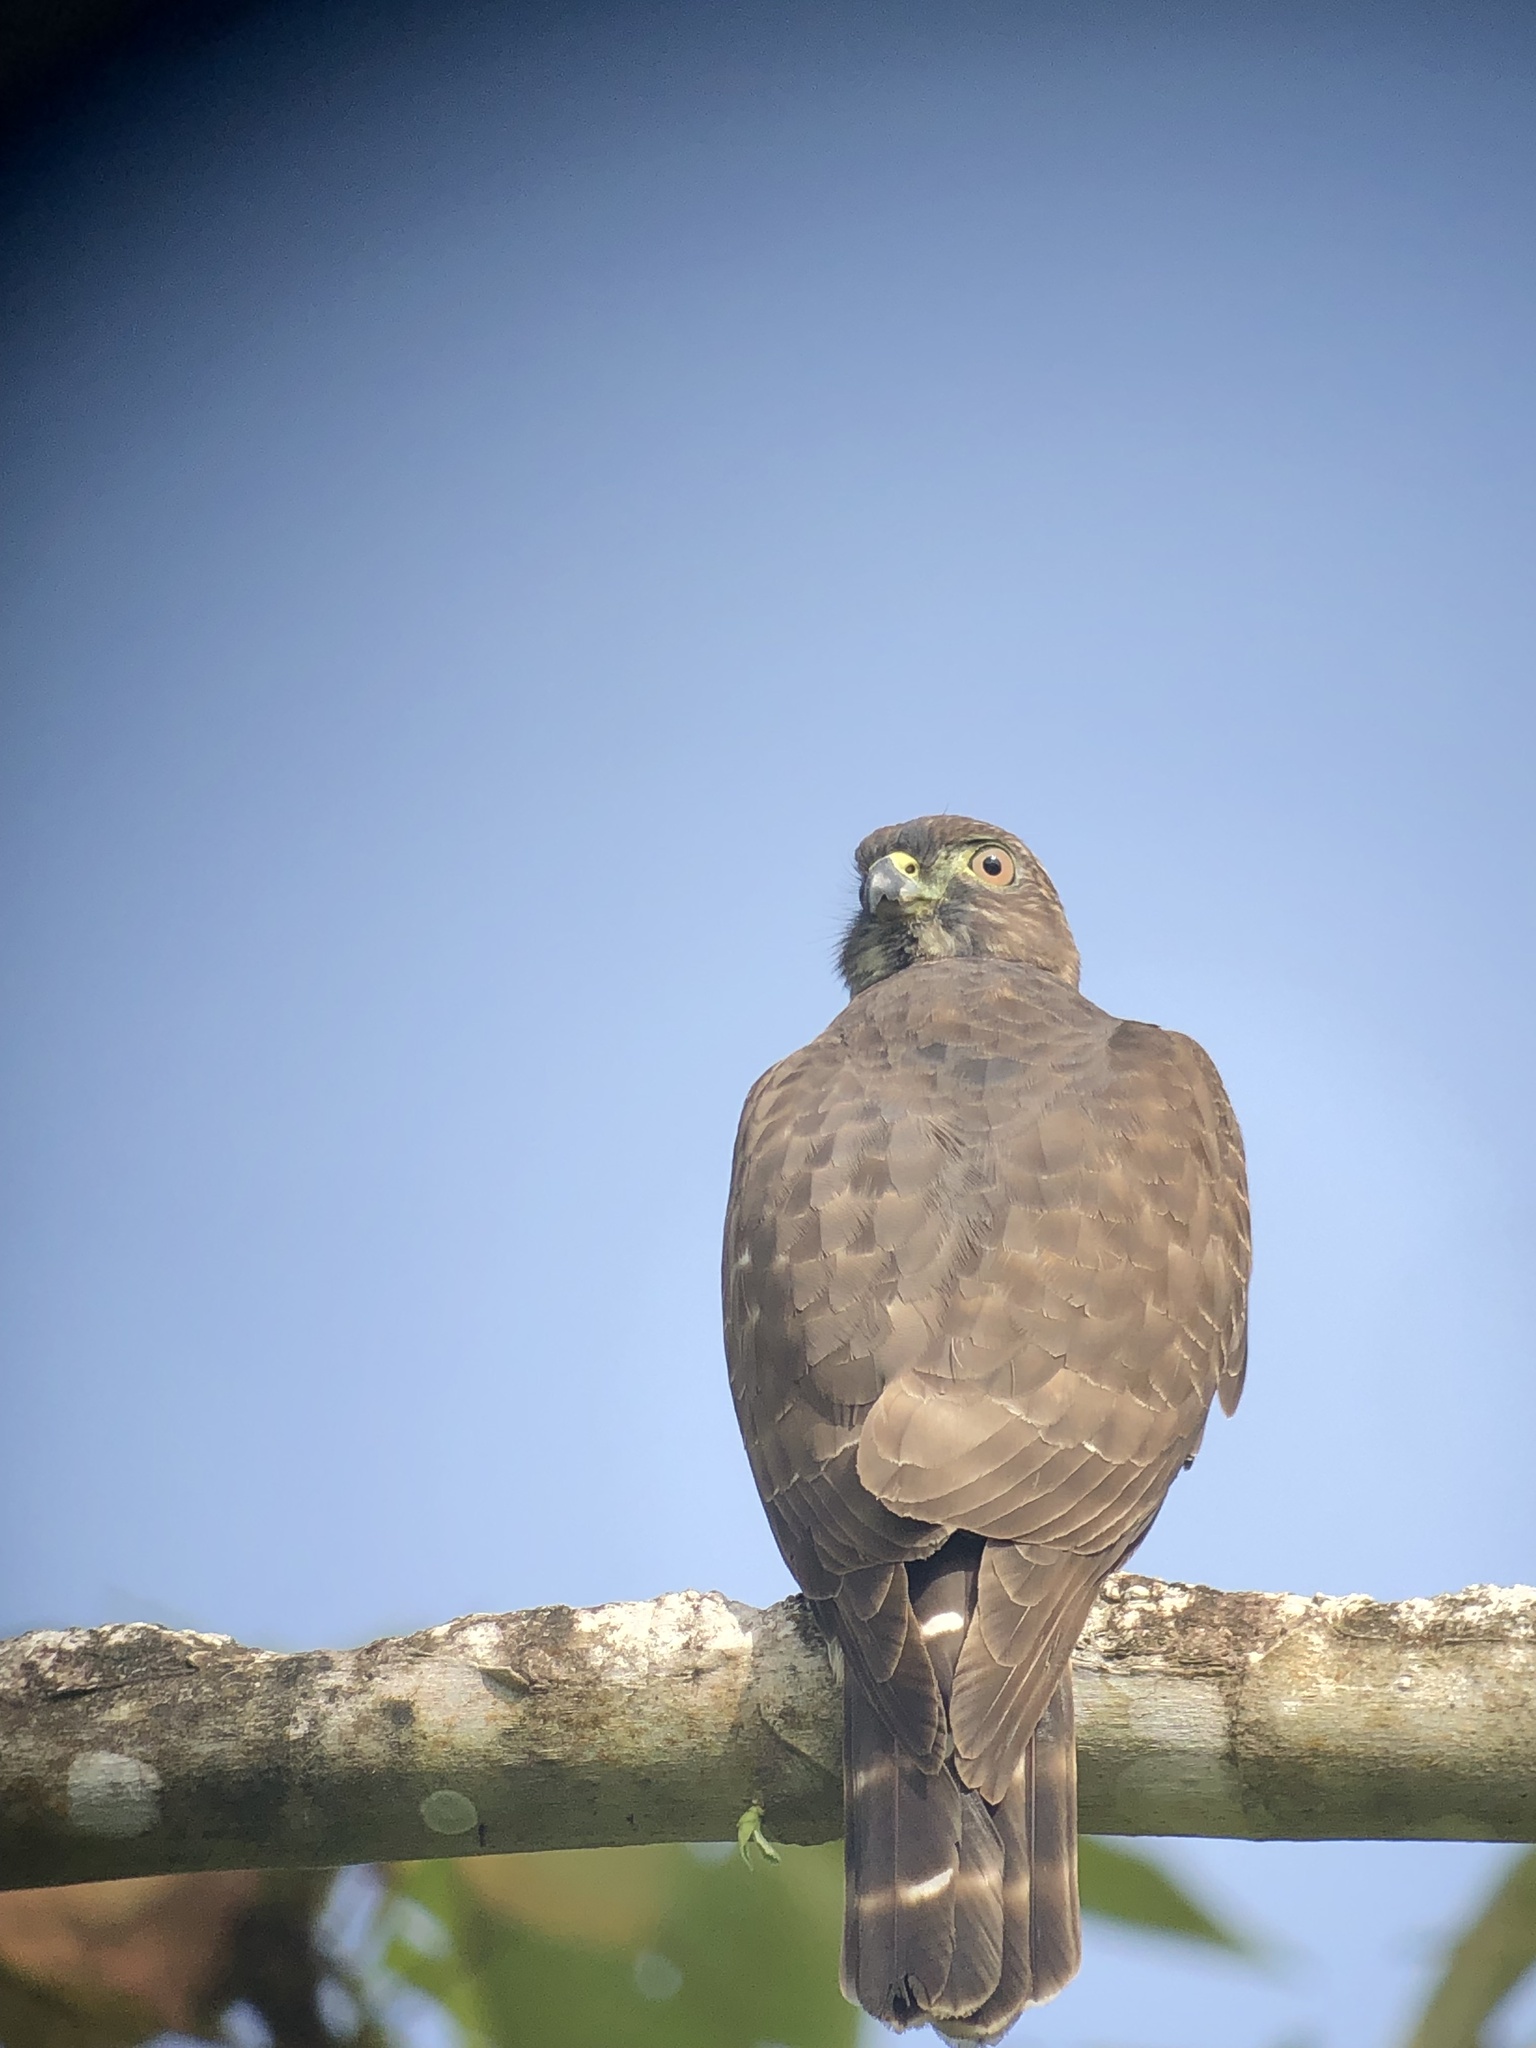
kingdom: Animalia
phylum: Chordata
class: Aves
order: Accipitriformes
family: Accipitridae
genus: Harpagus
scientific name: Harpagus bidentatus
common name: Double-toothed kite
